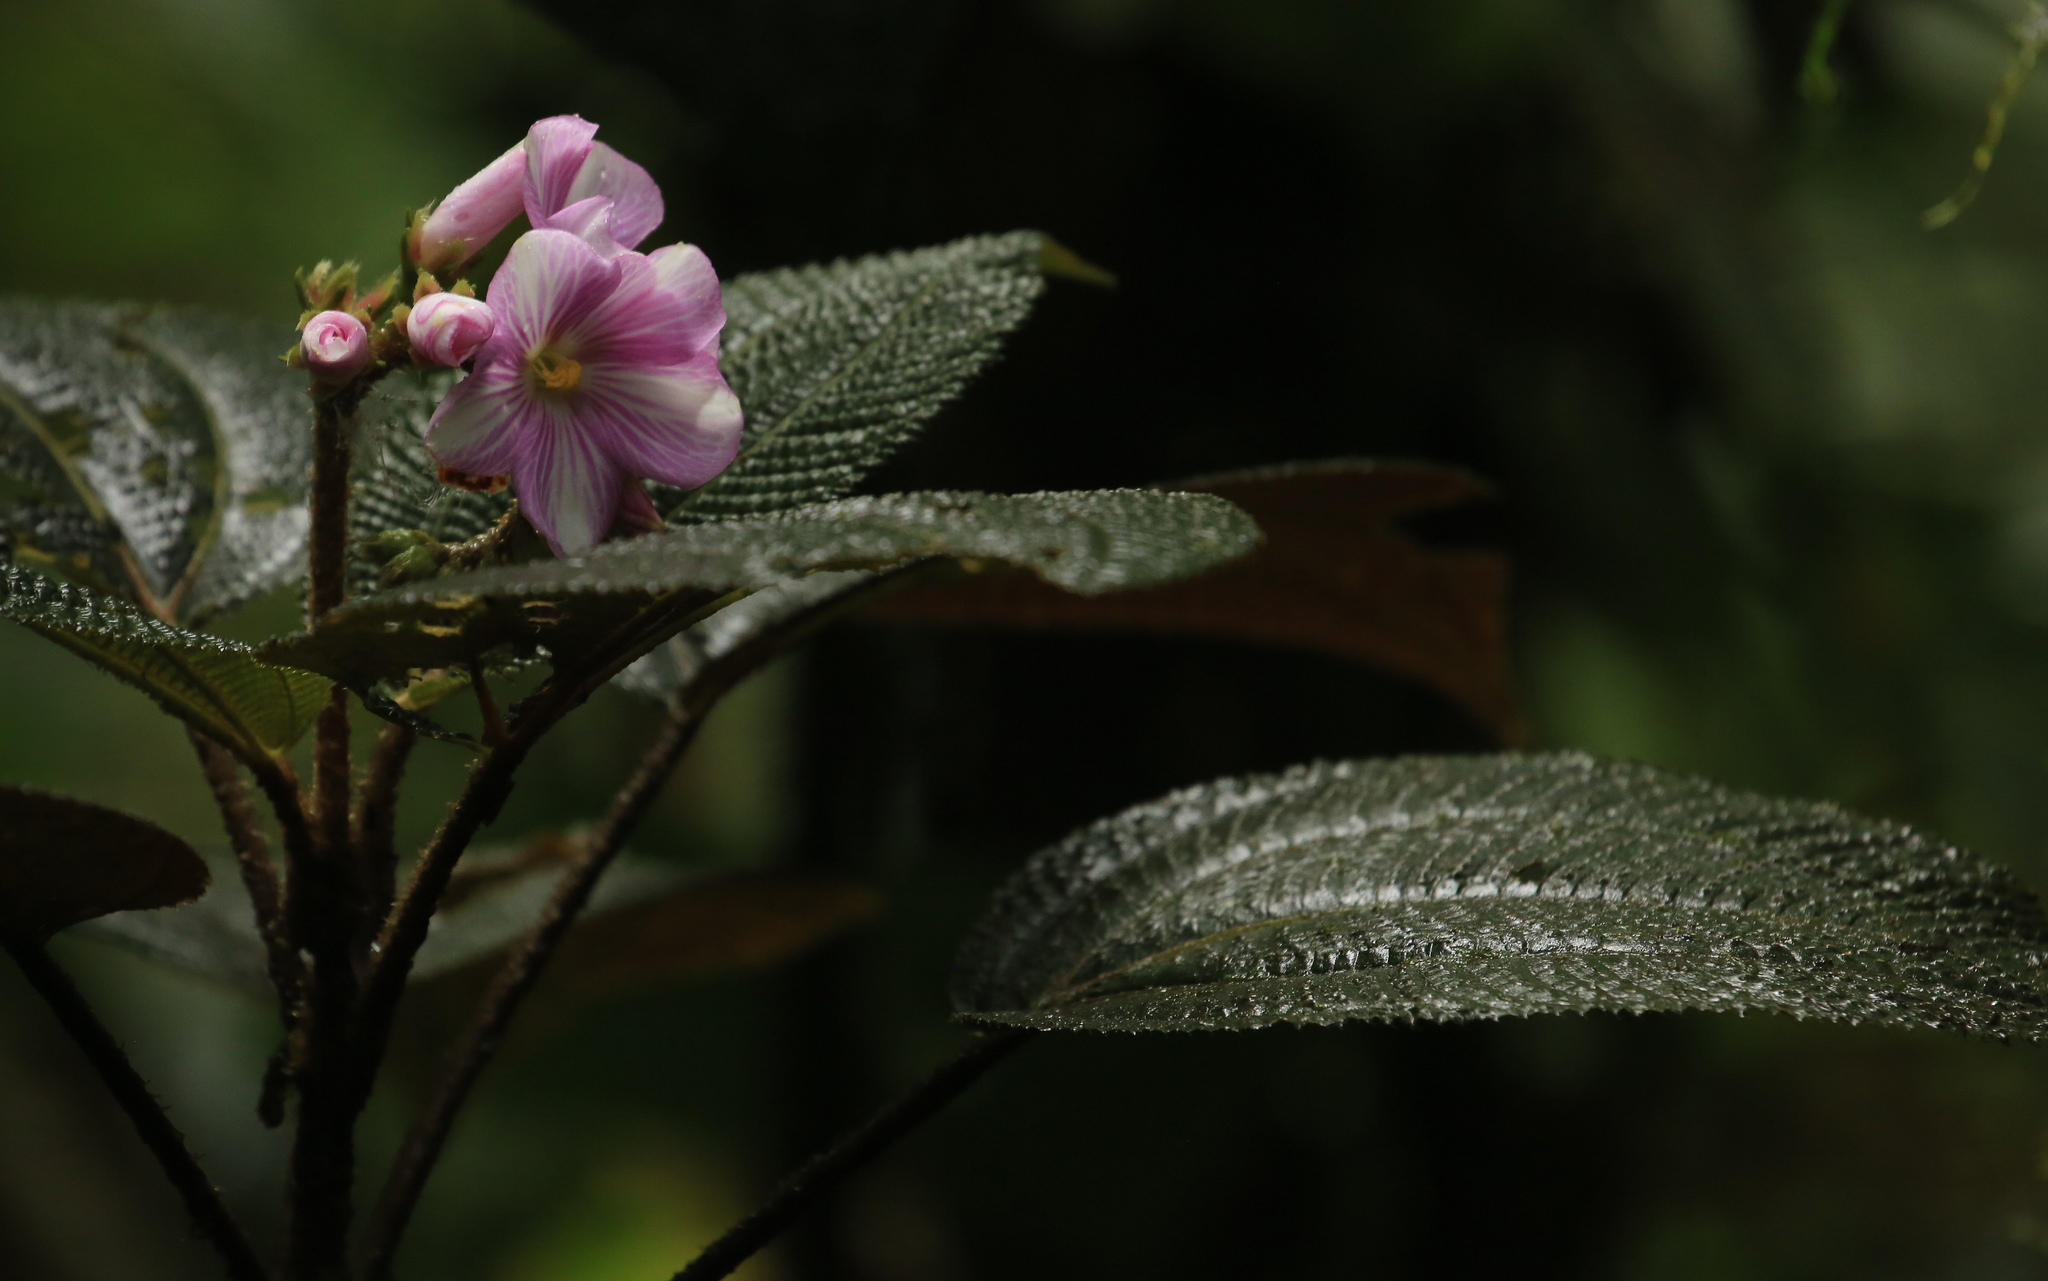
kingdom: Plantae
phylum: Tracheophyta
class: Magnoliopsida
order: Myrtales
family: Melastomataceae
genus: Andesanthus
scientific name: Andesanthus paleaceus
